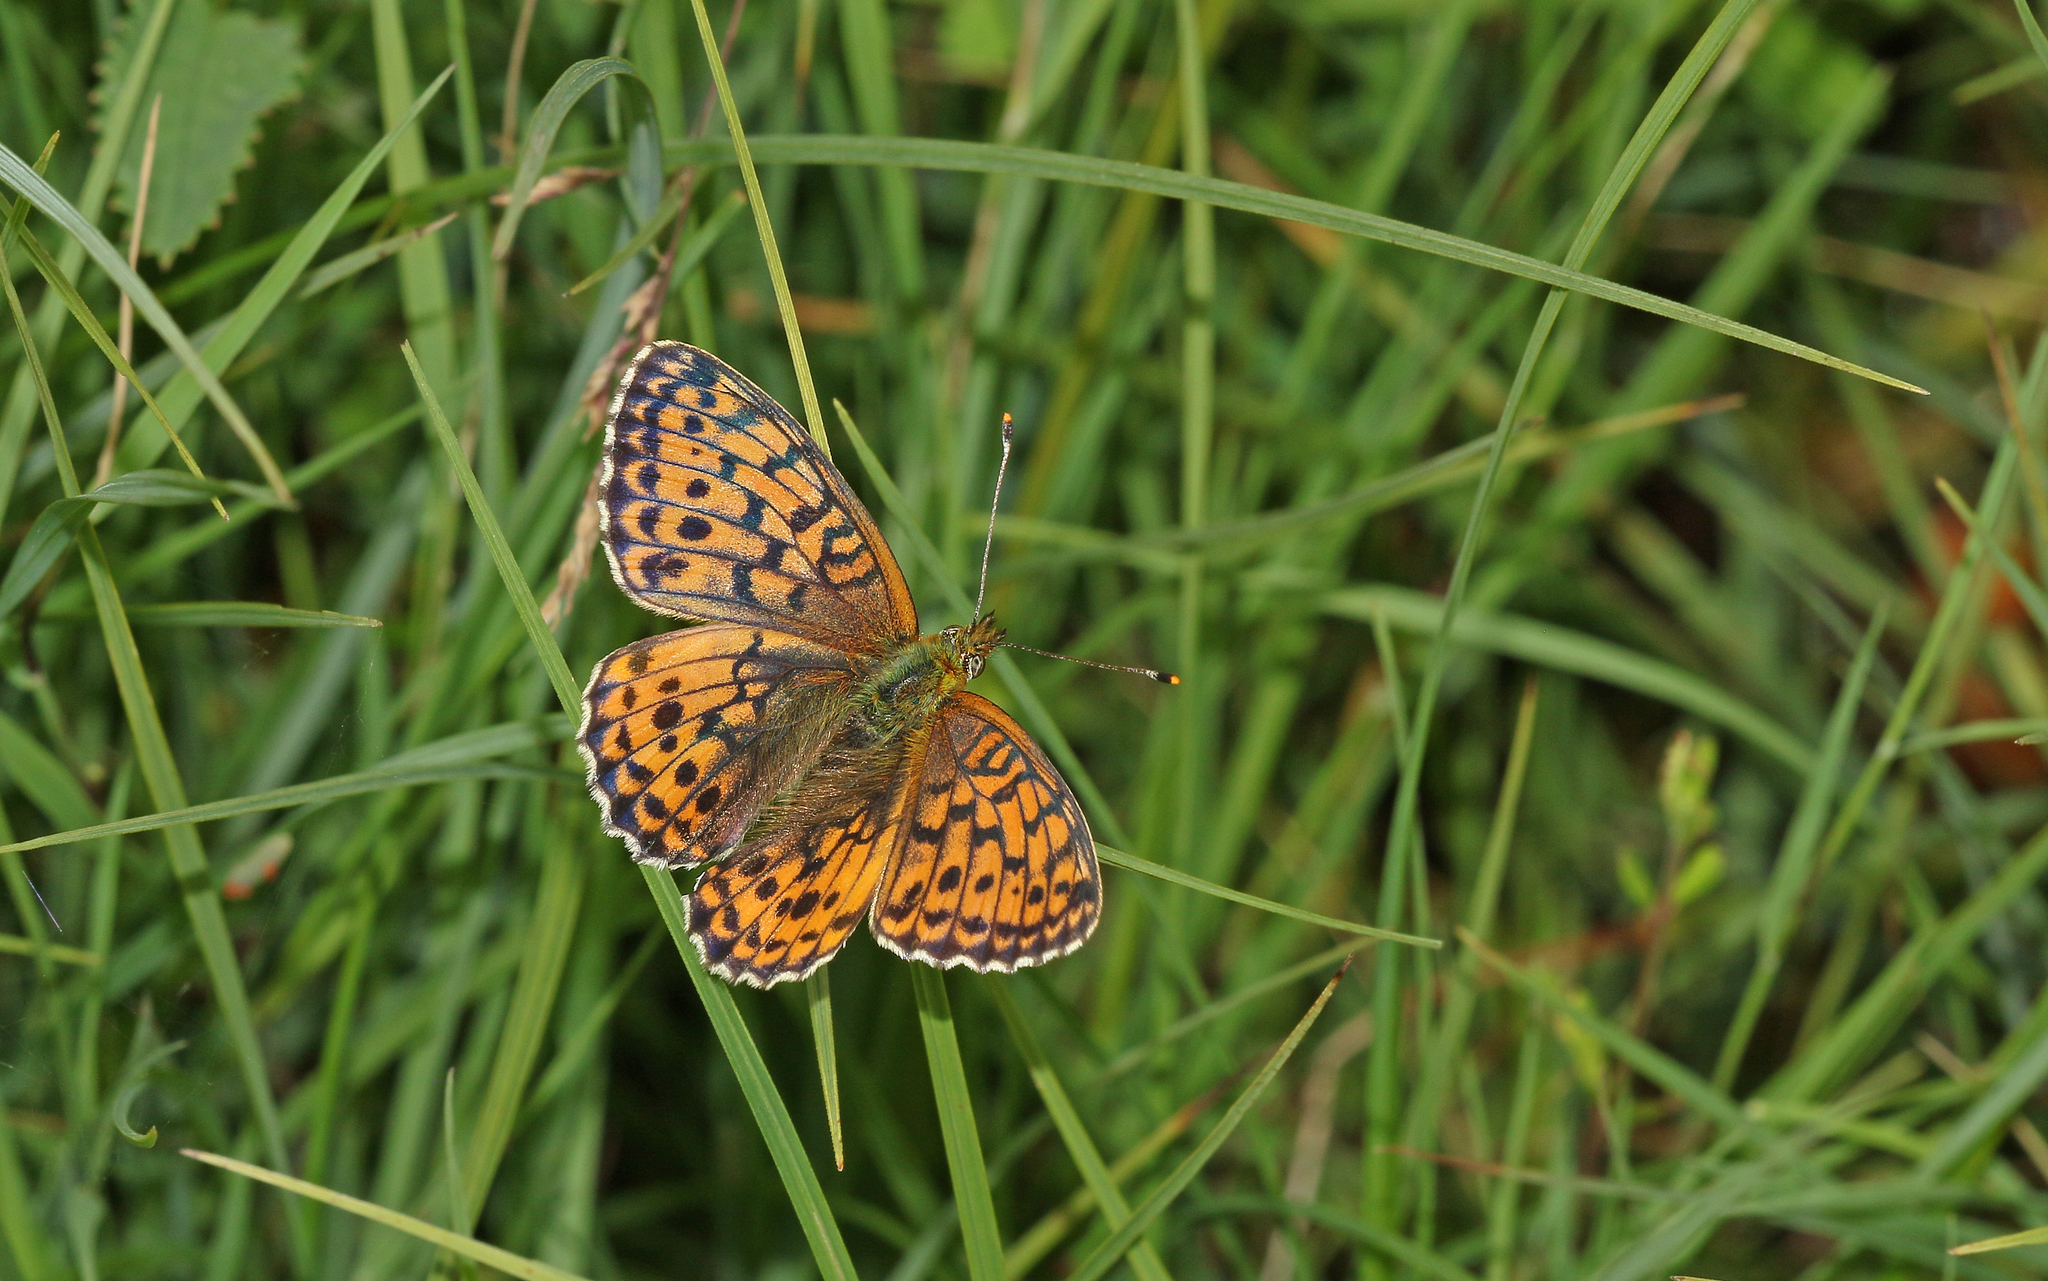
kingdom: Animalia
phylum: Arthropoda
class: Insecta
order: Lepidoptera
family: Nymphalidae
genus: Brenthis
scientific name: Brenthis ino
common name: Lesser marbled fritillary
